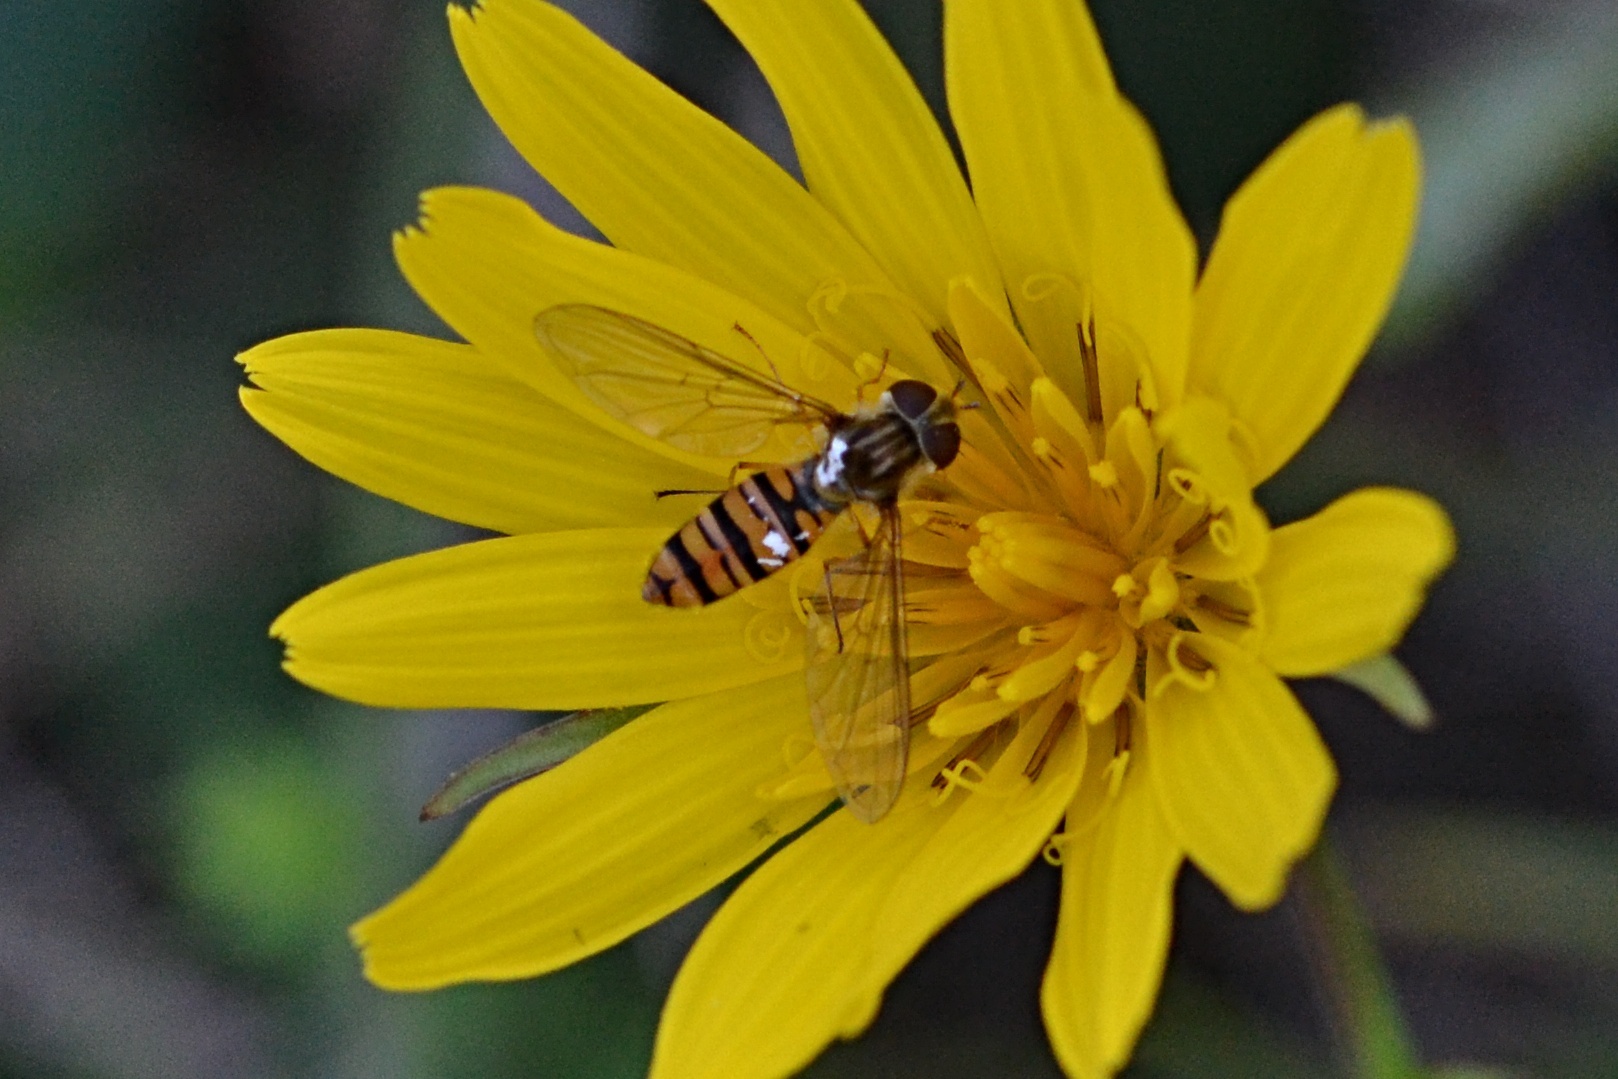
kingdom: Animalia
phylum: Arthropoda
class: Insecta
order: Diptera
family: Syrphidae
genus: Episyrphus
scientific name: Episyrphus balteatus
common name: Marmalade hoverfly
